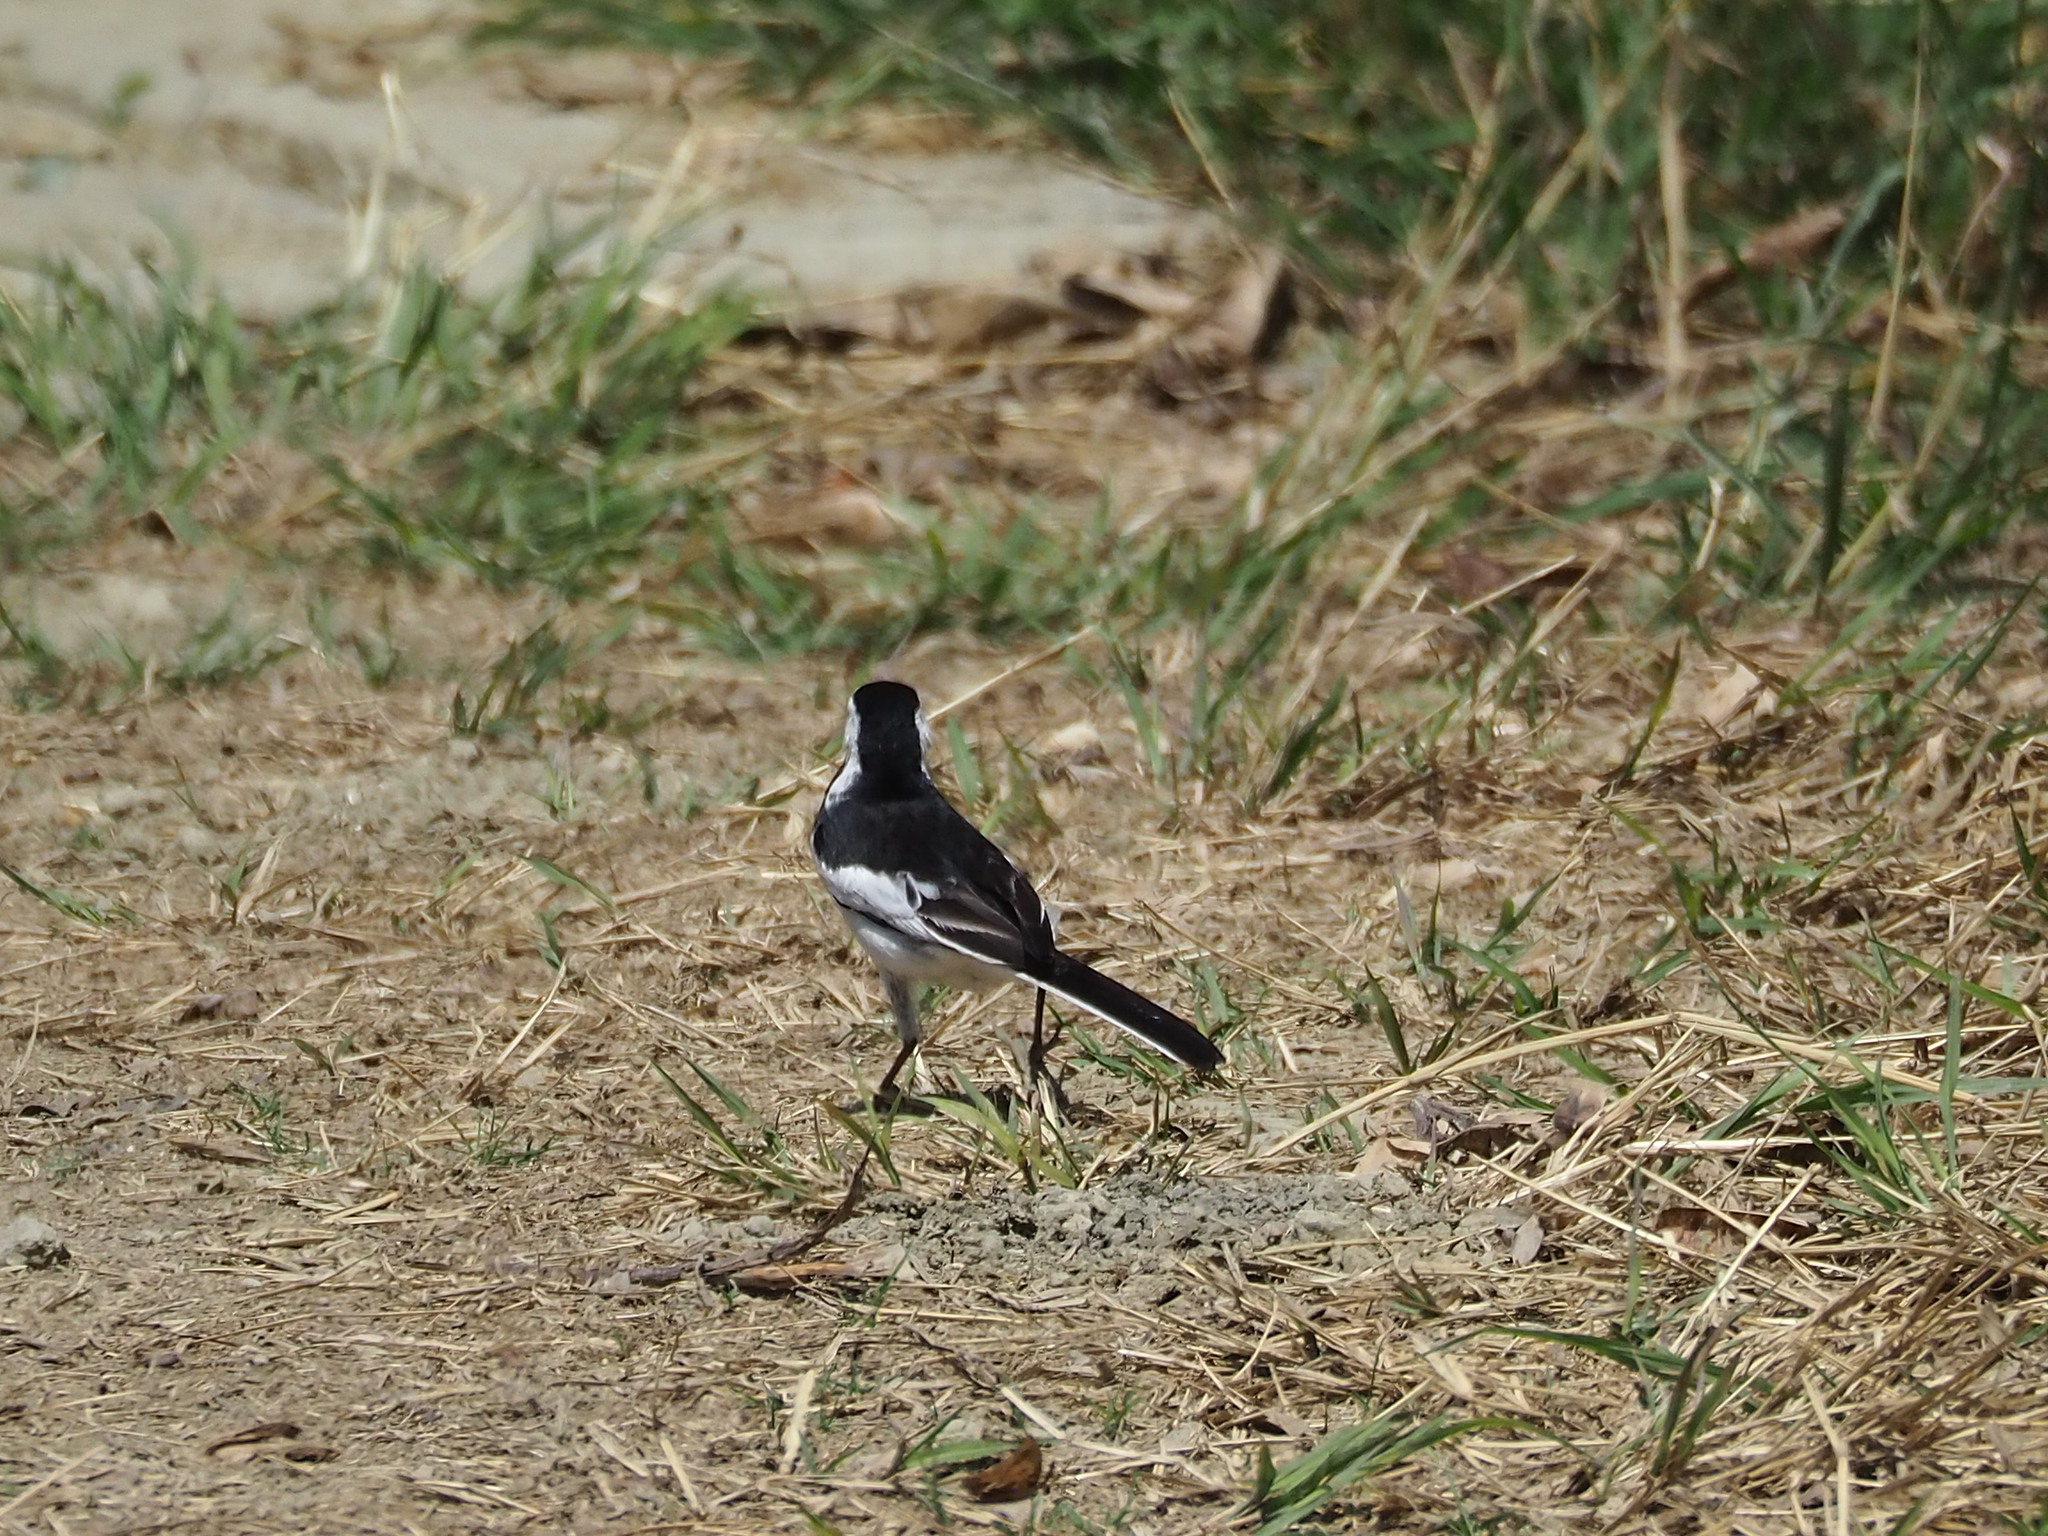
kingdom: Animalia
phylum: Chordata
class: Aves
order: Passeriformes
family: Motacillidae
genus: Motacilla
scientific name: Motacilla alba
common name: White wagtail
